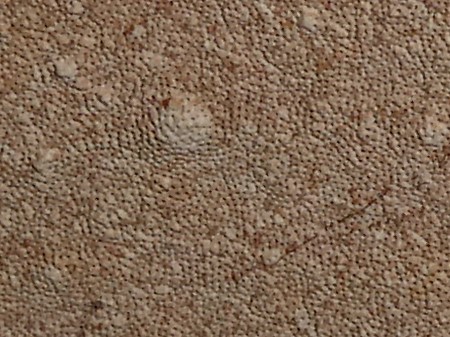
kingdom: Fungi
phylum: Basidiomycota
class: Agaricomycetes
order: Polyporales
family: Polyporaceae
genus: Ganoderma
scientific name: Ganoderma applanatum
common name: Artist's bracket
